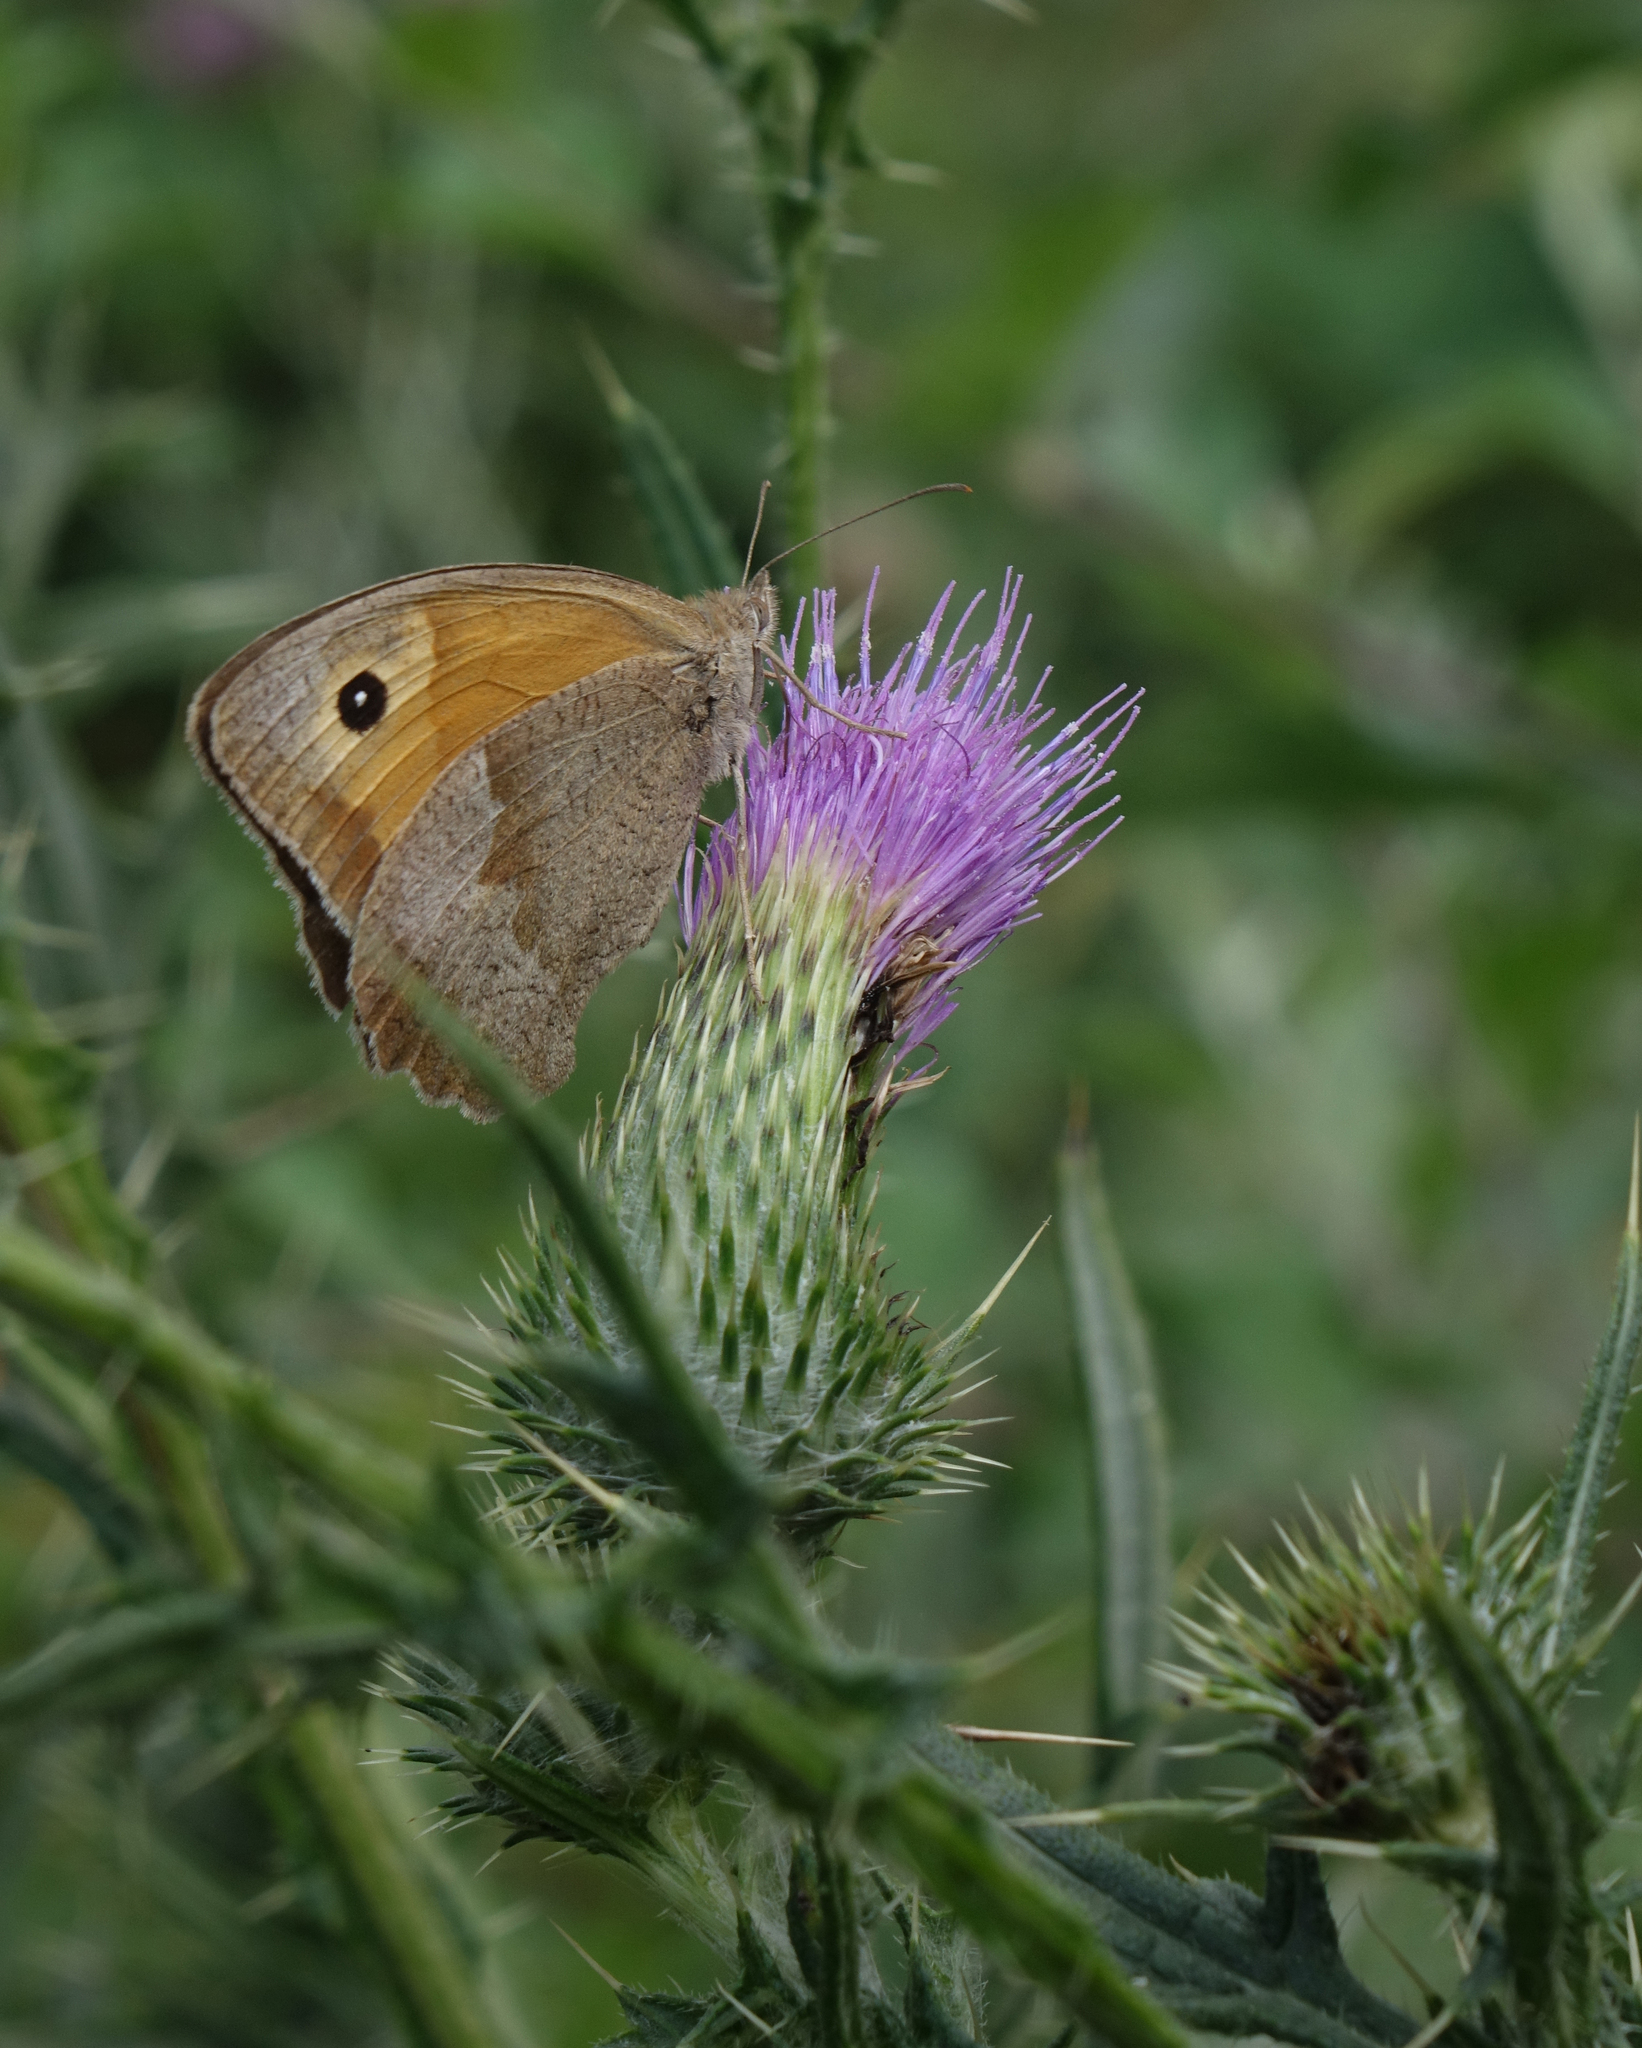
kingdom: Animalia
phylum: Arthropoda
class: Insecta
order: Lepidoptera
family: Nymphalidae
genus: Maniola
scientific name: Maniola jurtina
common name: Meadow brown
